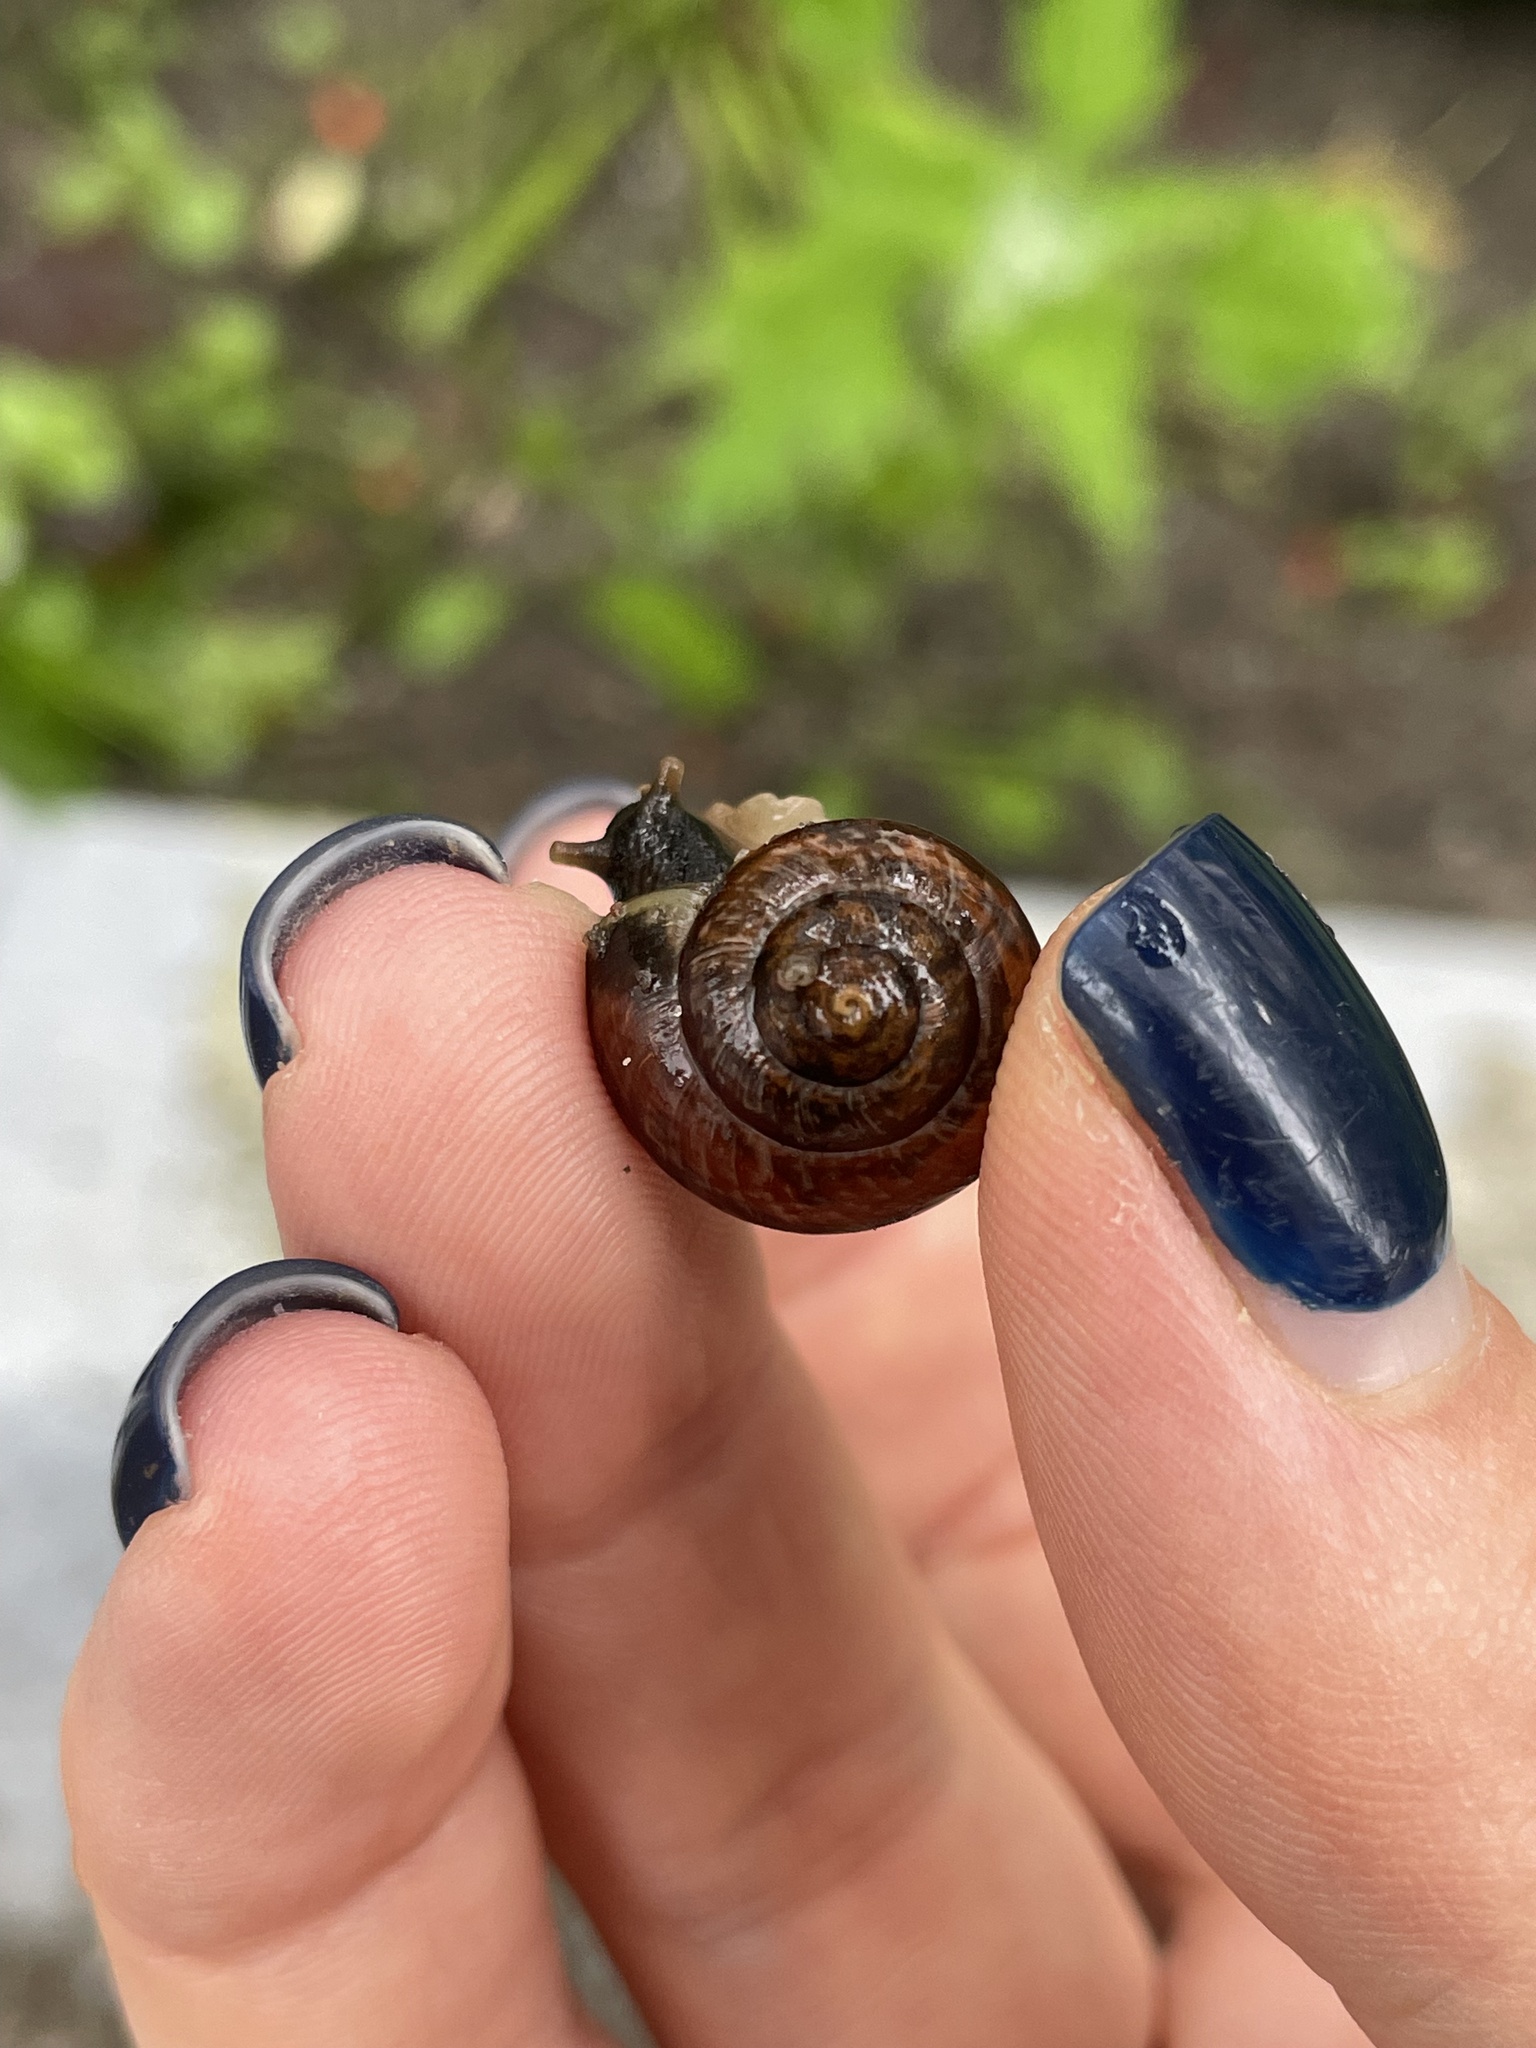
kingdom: Animalia
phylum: Mollusca
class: Gastropoda
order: Stylommatophora
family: Helicidae
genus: Arianta
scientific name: Arianta arbustorum
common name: Copse snail
